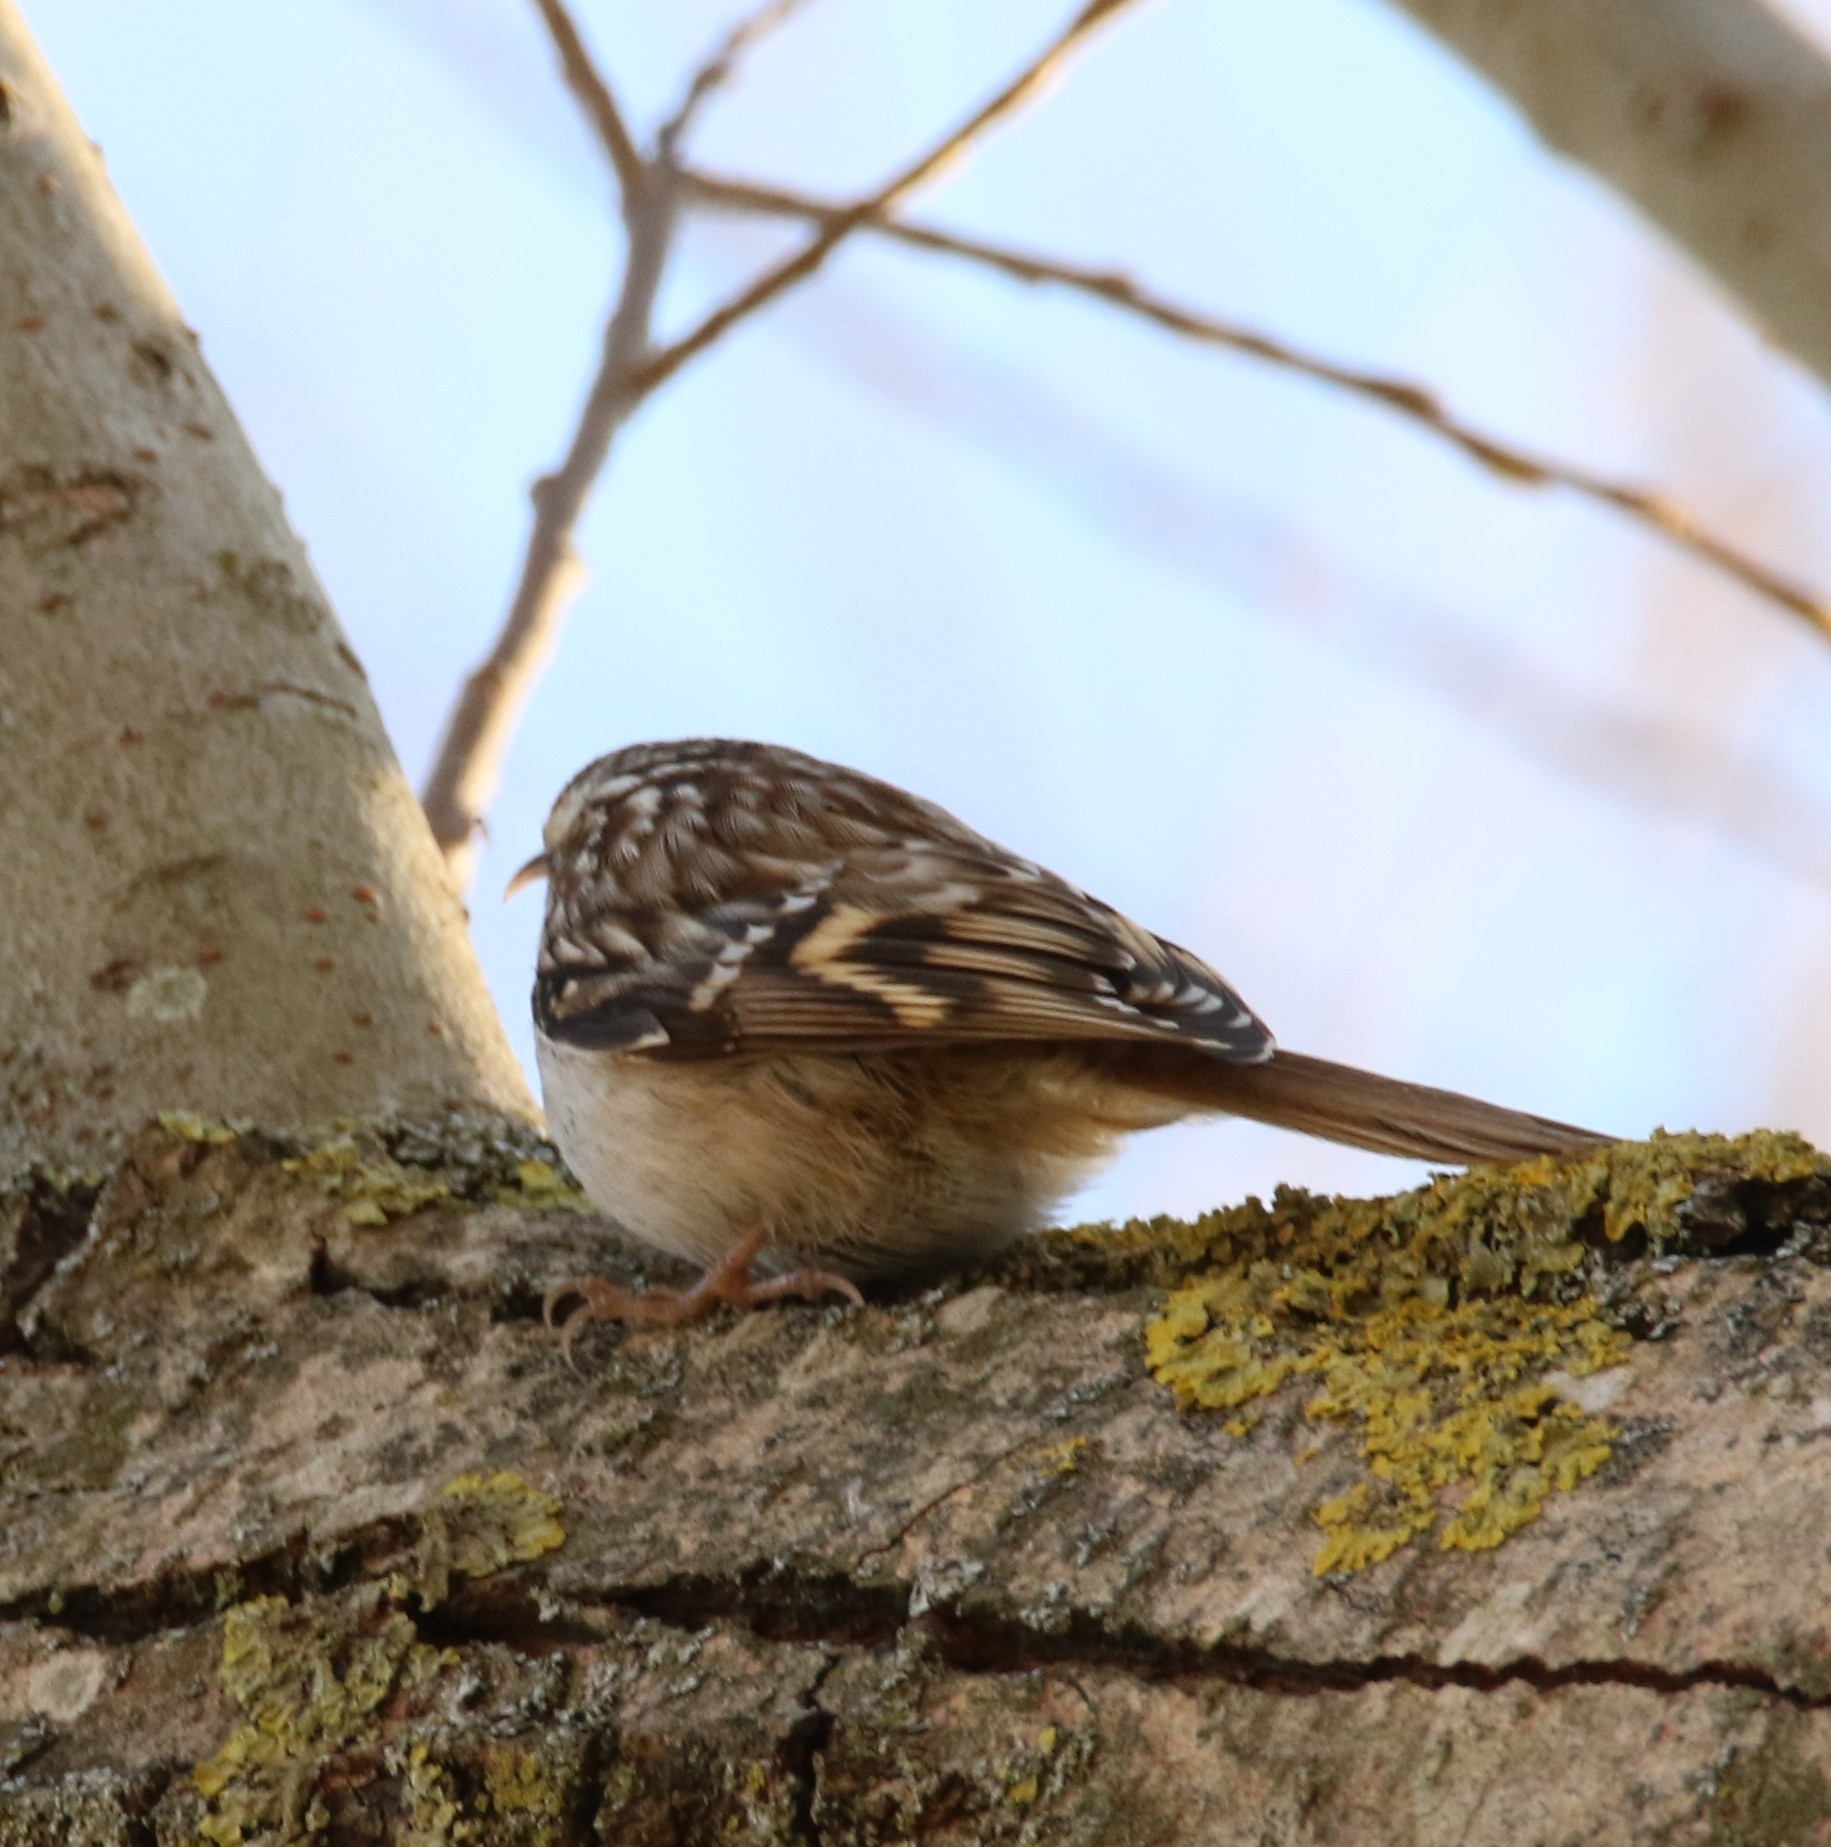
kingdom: Animalia
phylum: Chordata
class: Aves
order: Passeriformes
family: Certhiidae
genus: Certhia
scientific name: Certhia brachydactyla
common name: Short-toed treecreeper
